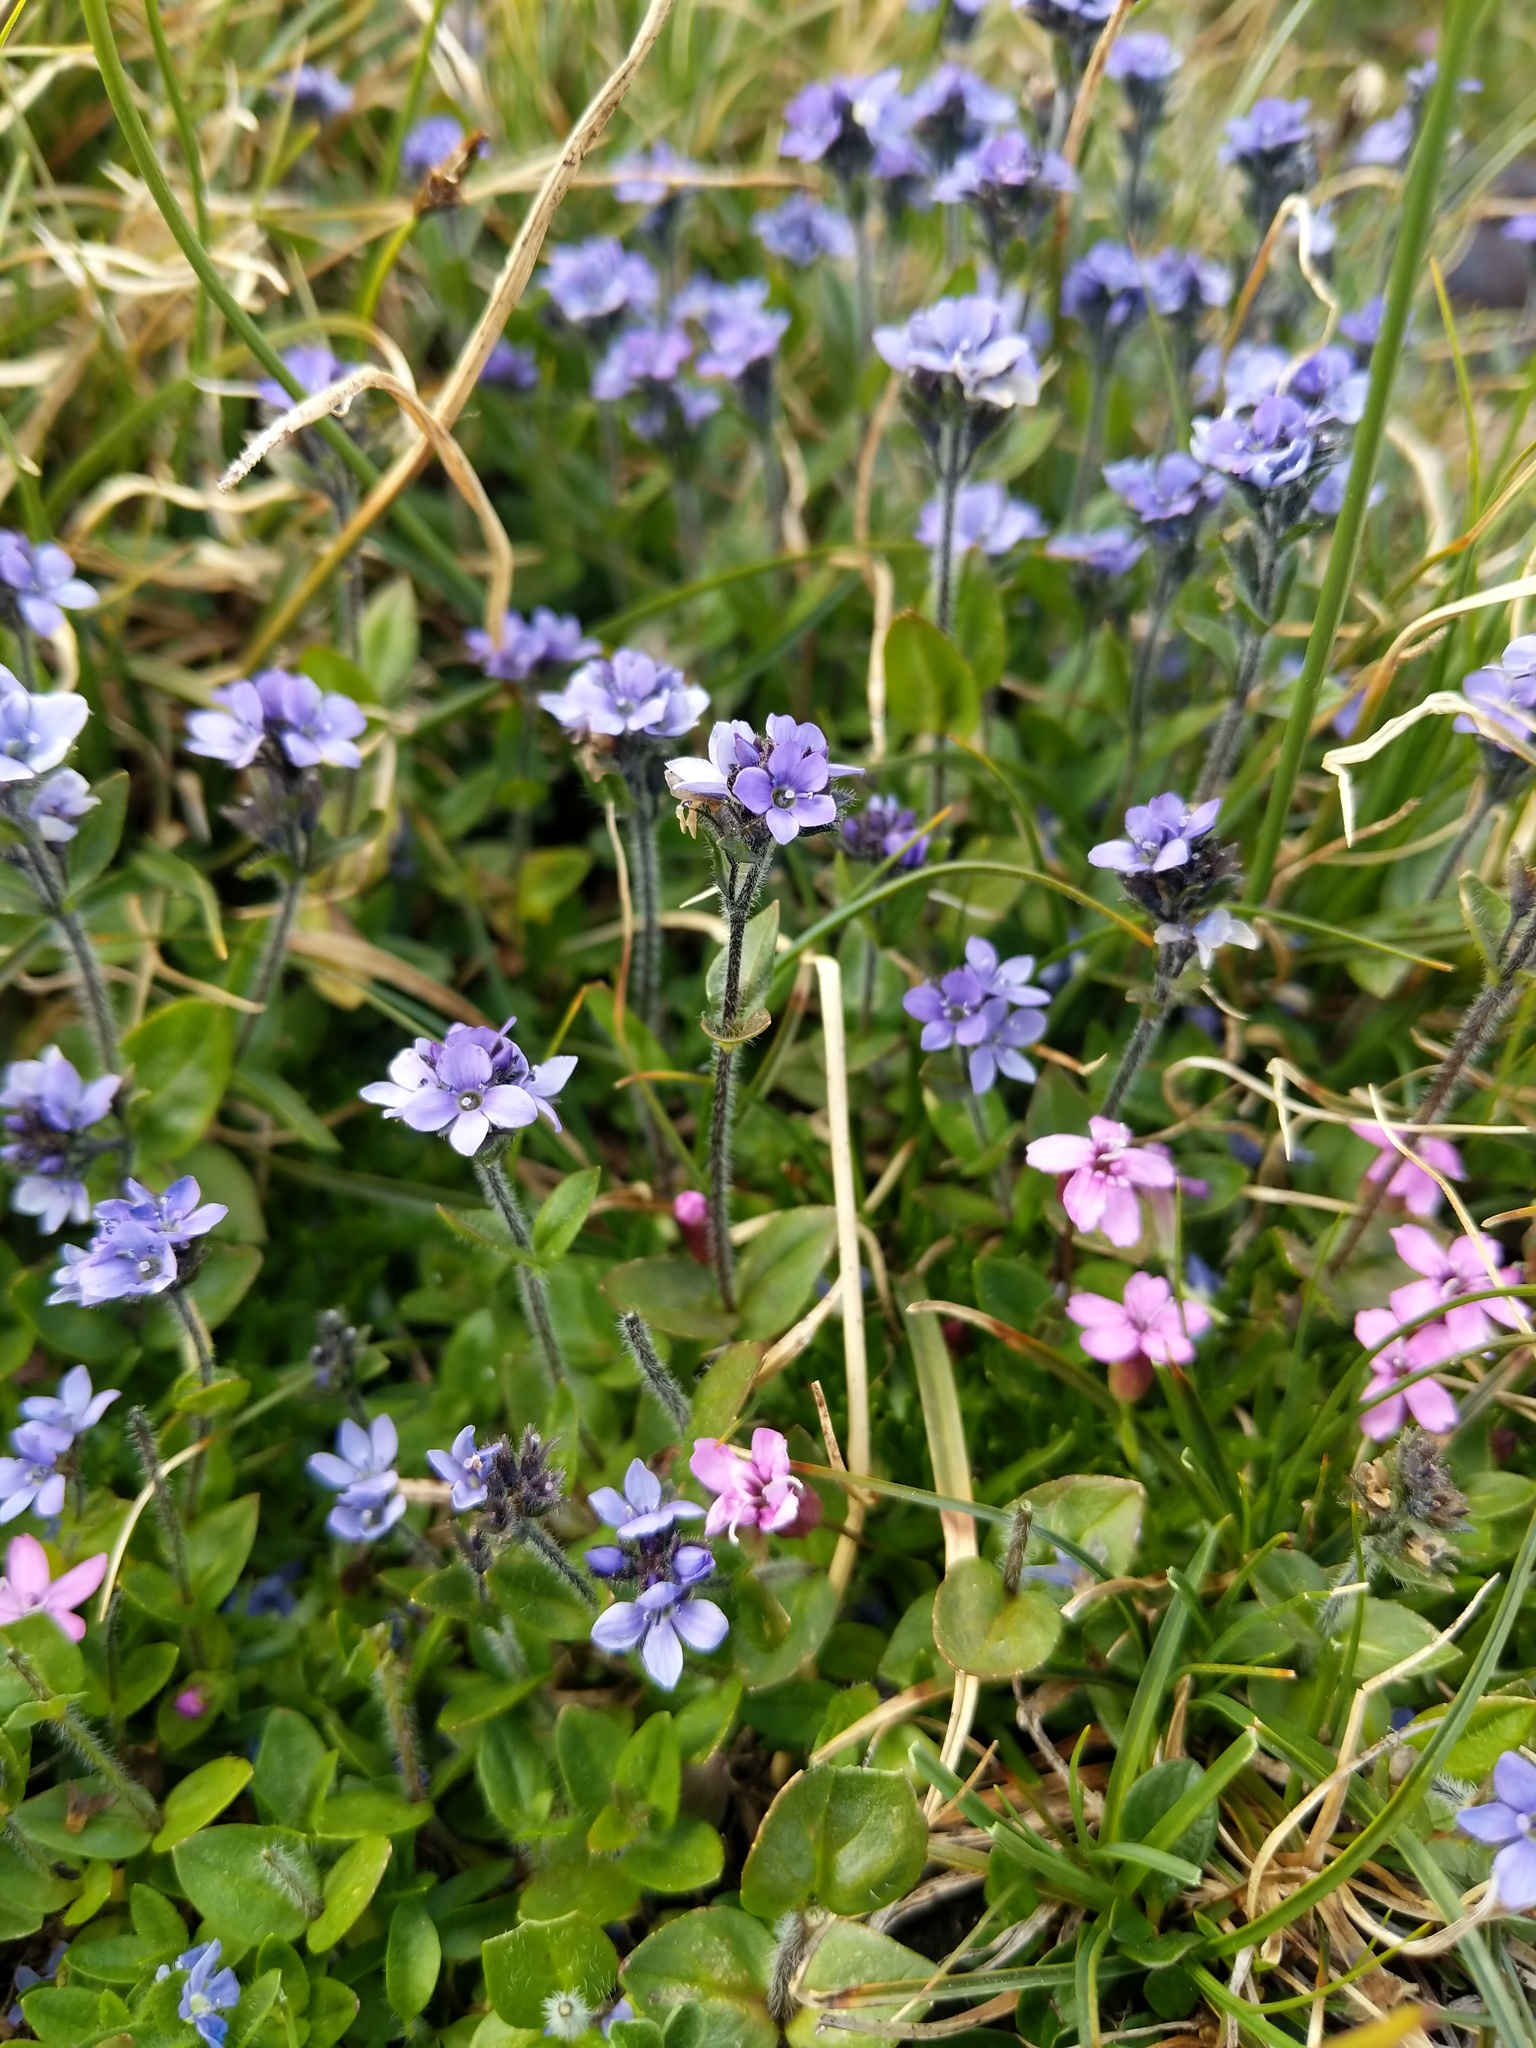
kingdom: Plantae
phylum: Tracheophyta
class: Magnoliopsida
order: Lamiales
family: Plantaginaceae
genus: Veronica
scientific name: Veronica wormskjoldii
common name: American alpine speedwell
